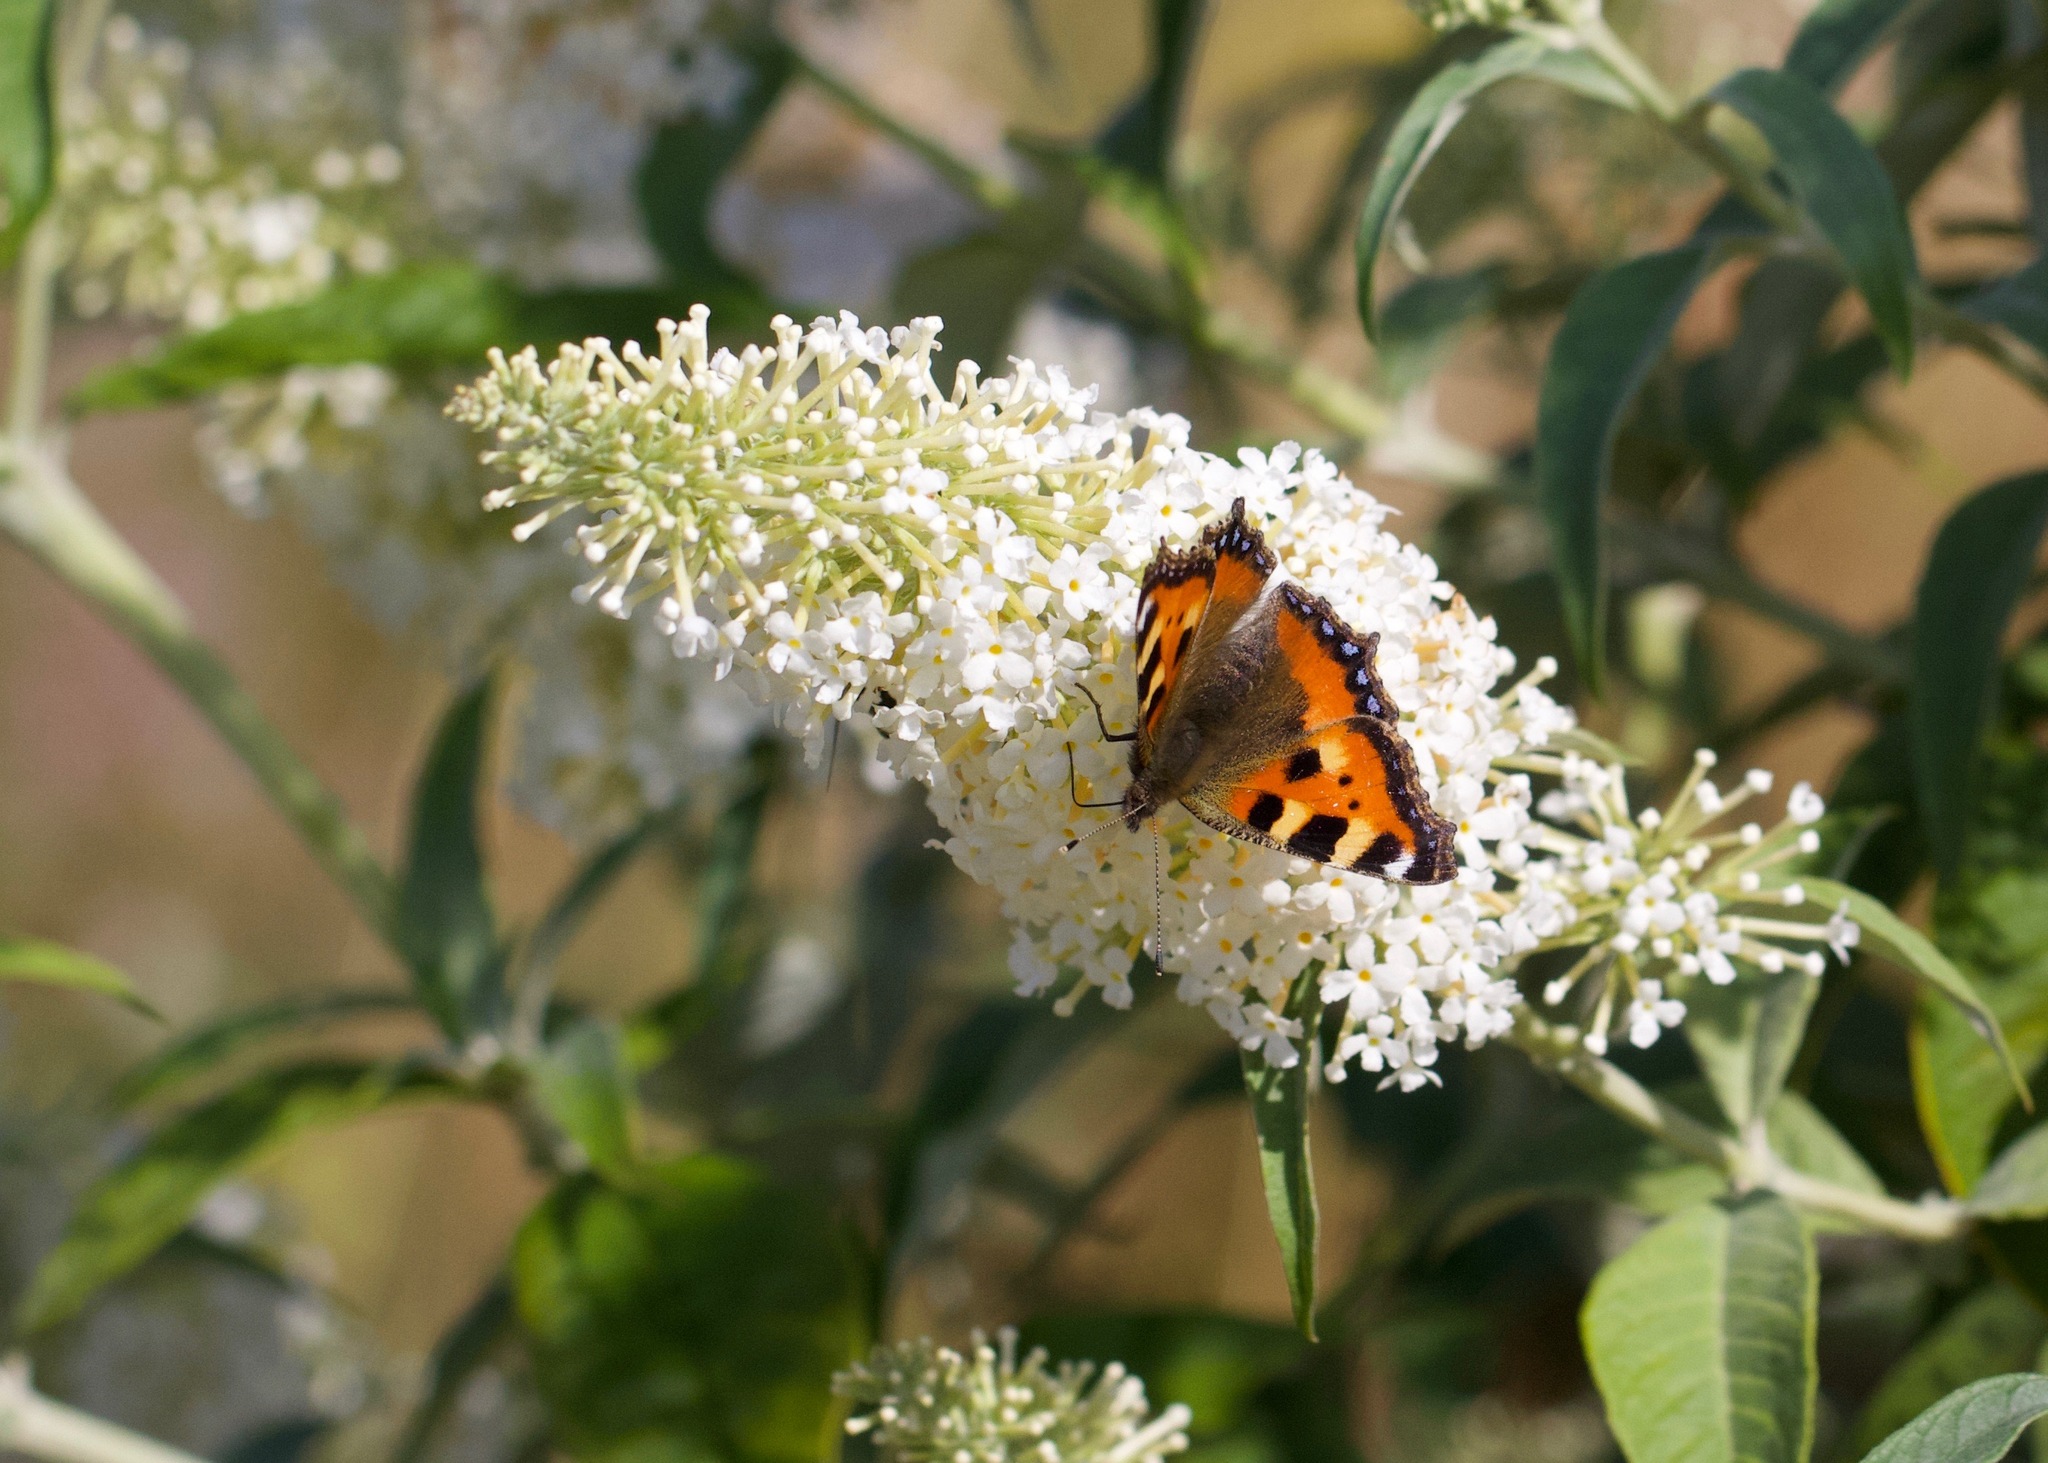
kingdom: Animalia
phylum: Arthropoda
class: Insecta
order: Lepidoptera
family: Nymphalidae
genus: Aglais
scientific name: Aglais urticae
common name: Small tortoiseshell
